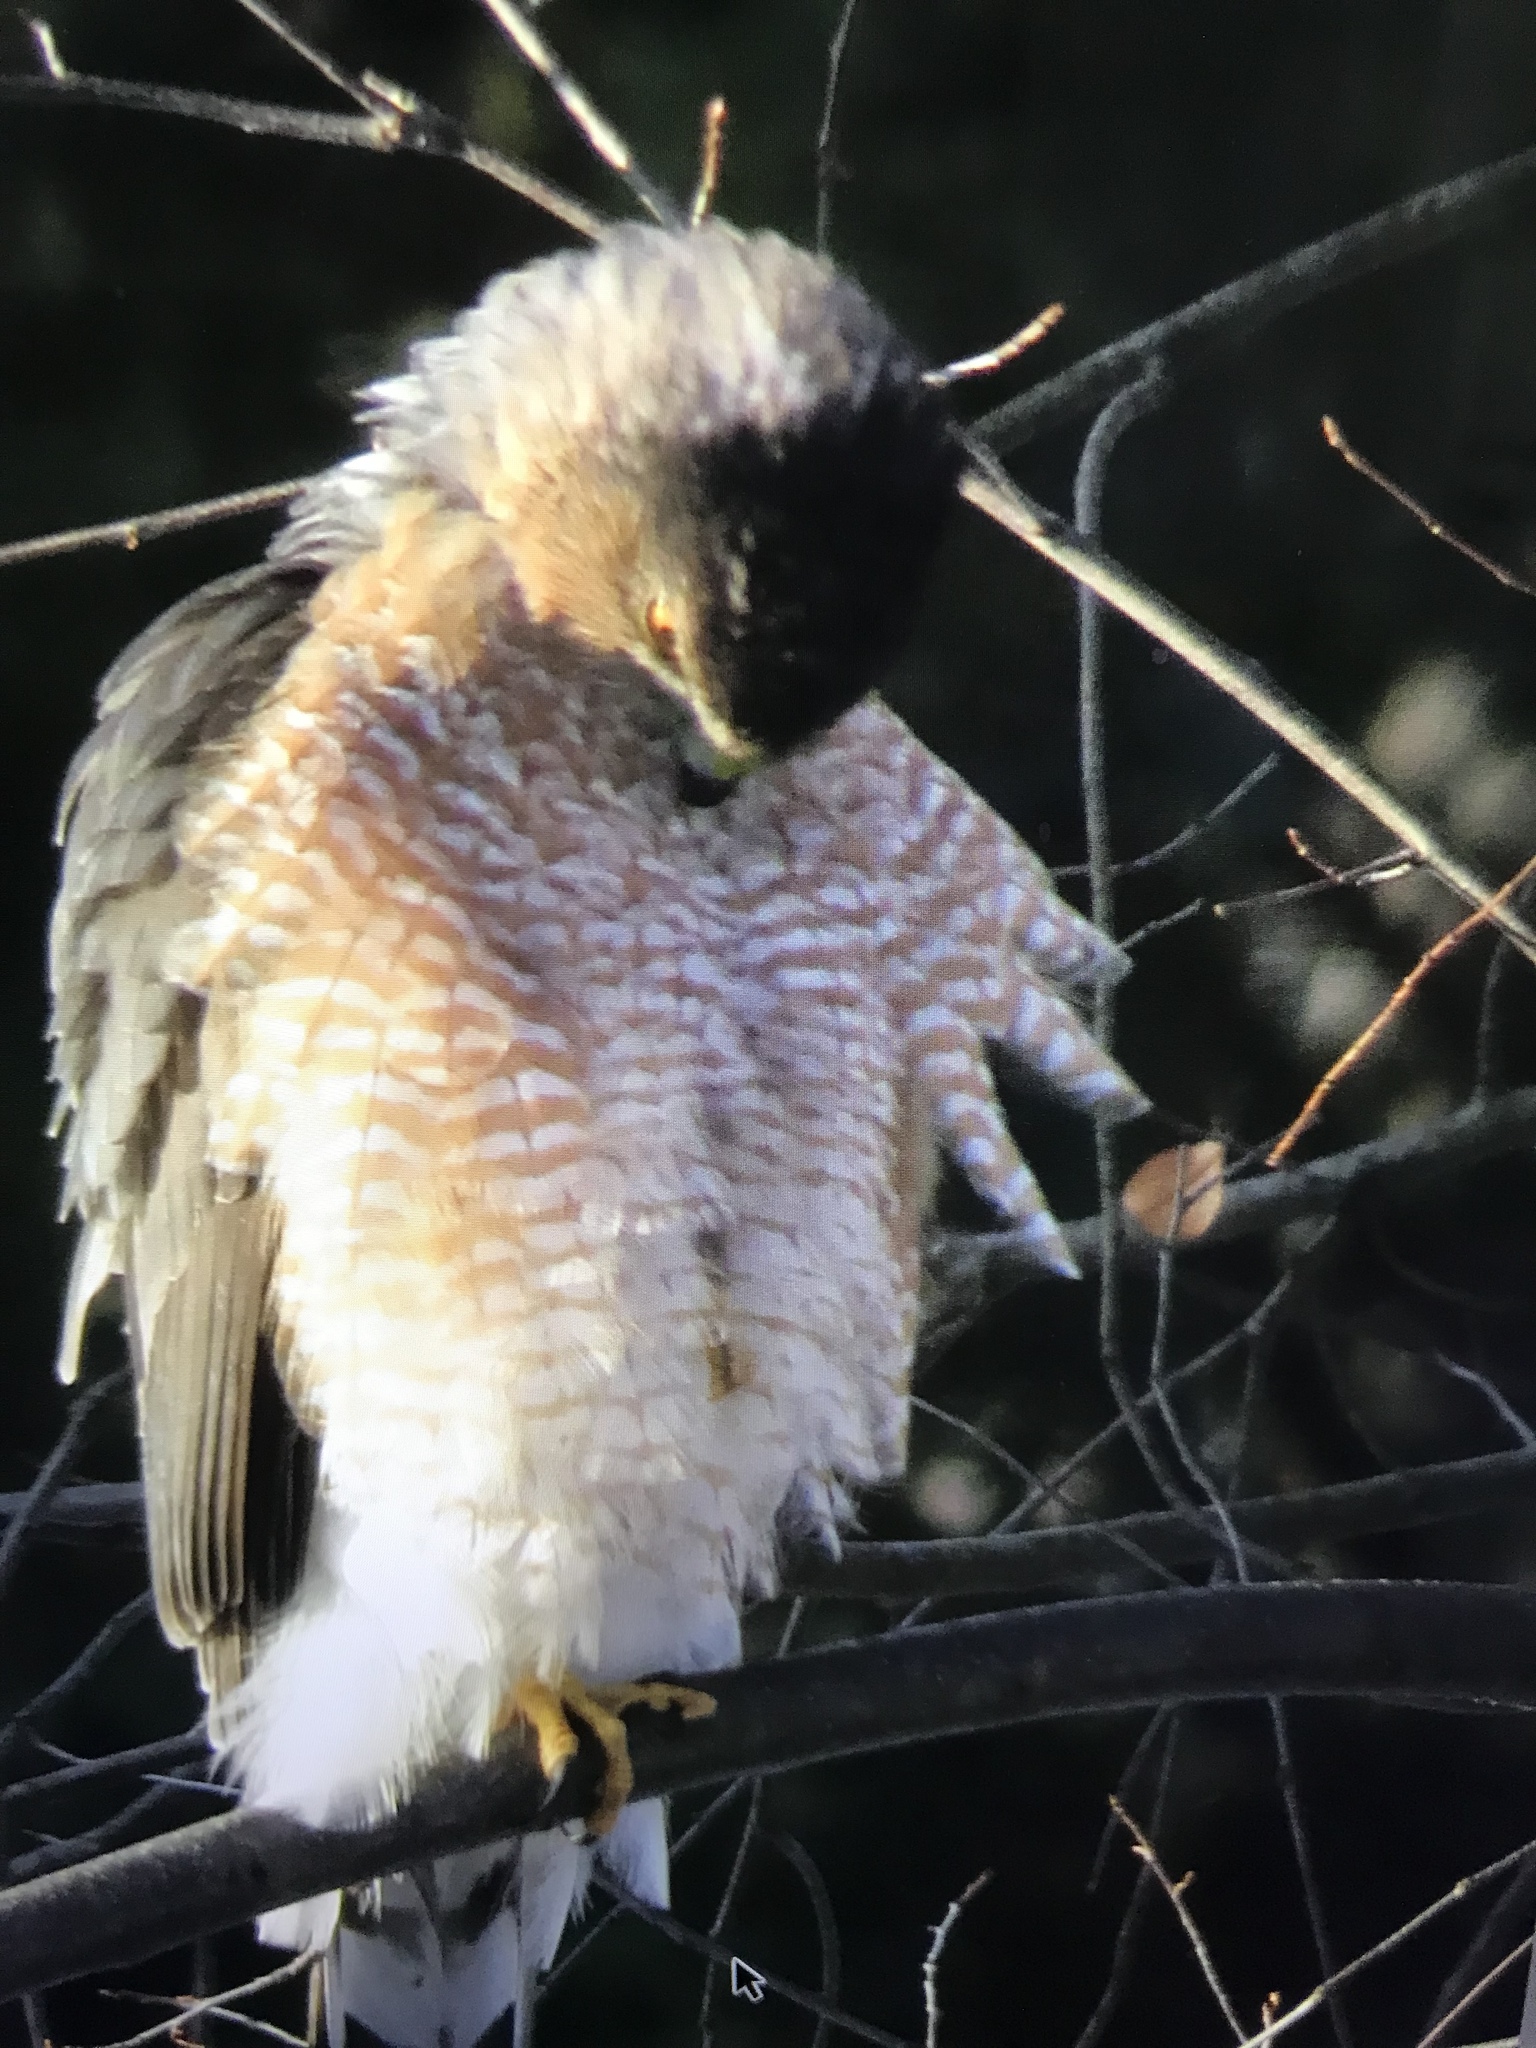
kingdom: Animalia
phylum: Chordata
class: Aves
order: Accipitriformes
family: Accipitridae
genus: Accipiter
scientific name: Accipiter cooperii
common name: Cooper's hawk
